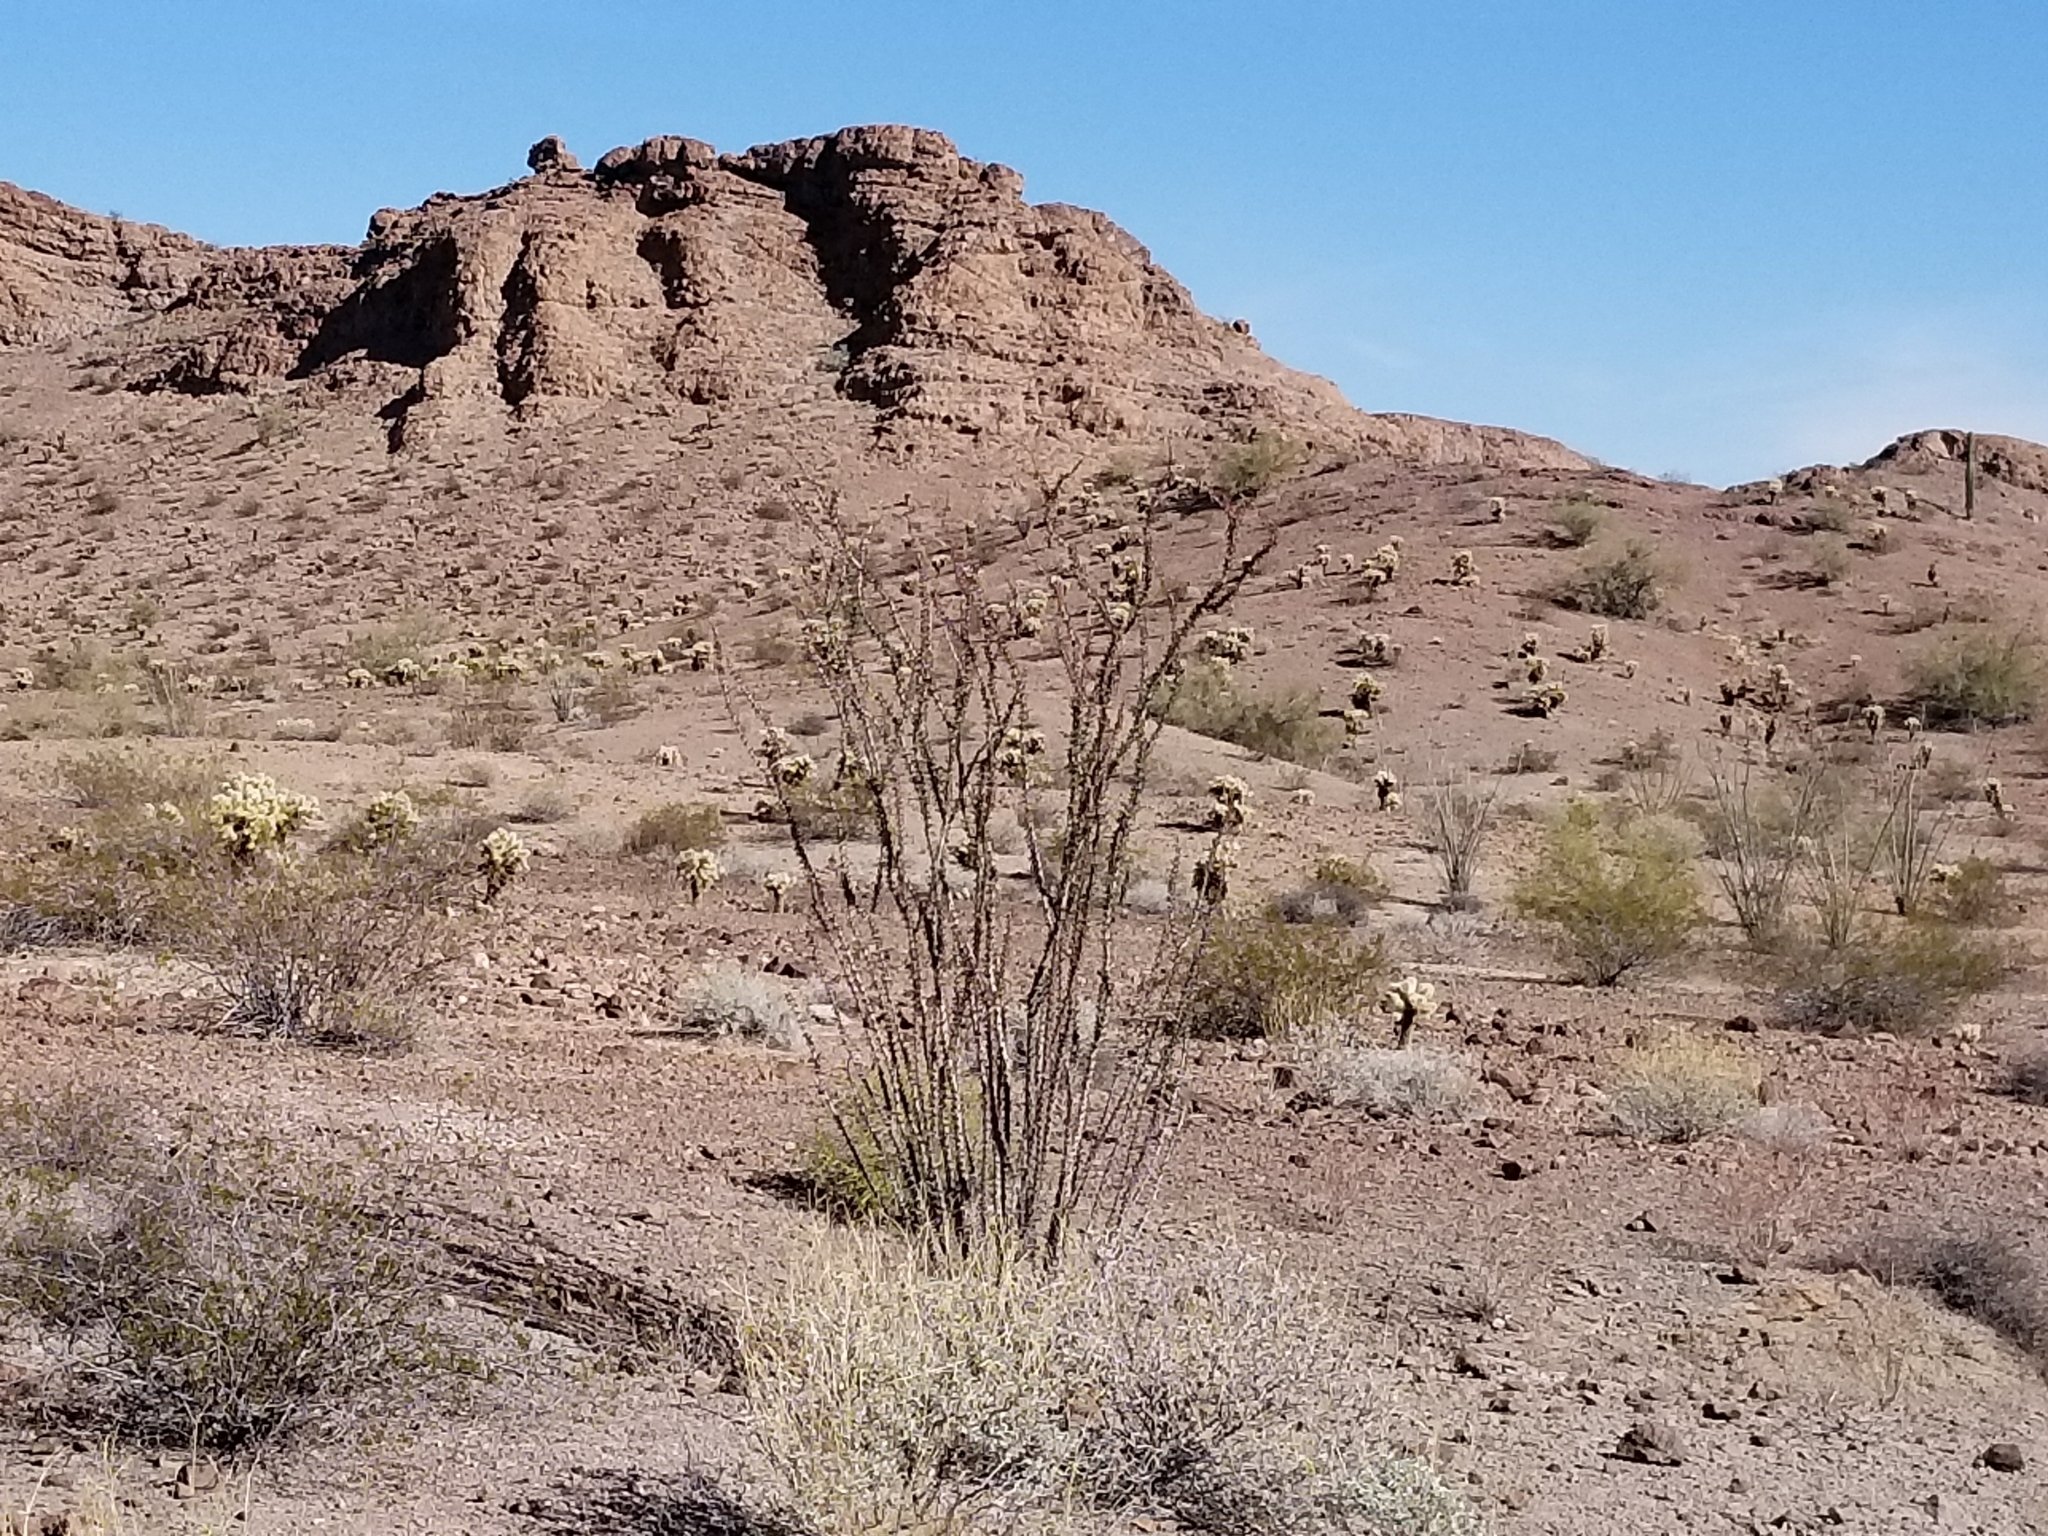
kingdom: Plantae
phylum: Tracheophyta
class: Magnoliopsida
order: Ericales
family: Fouquieriaceae
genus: Fouquieria
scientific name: Fouquieria splendens
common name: Vine-cactus
